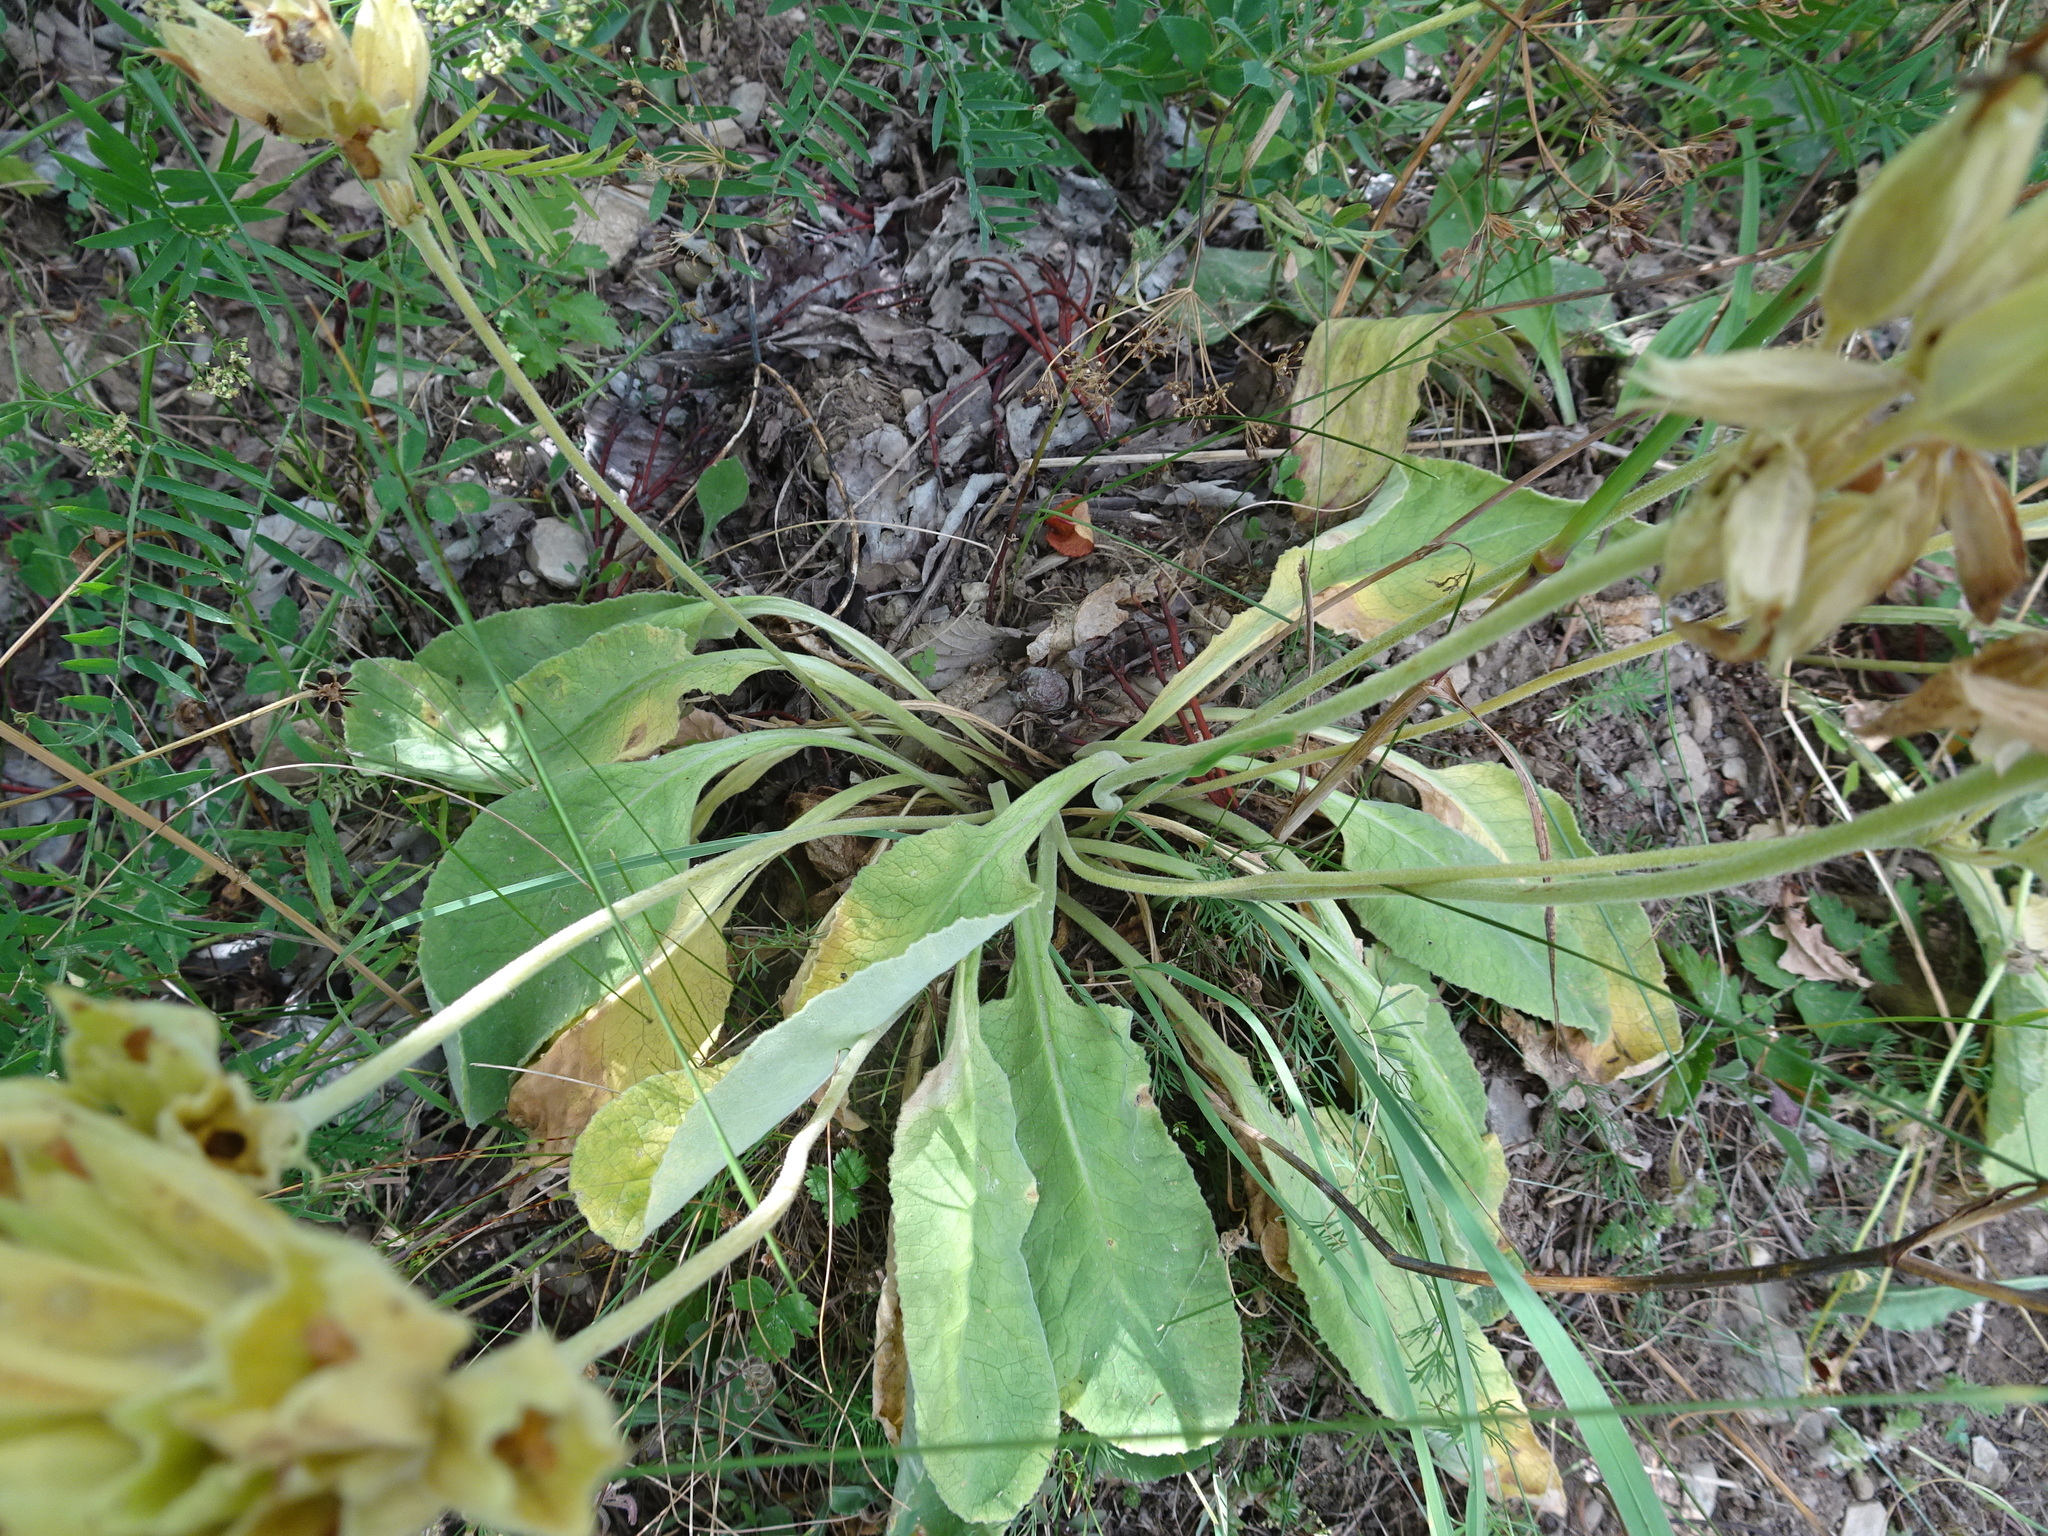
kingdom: Plantae
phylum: Tracheophyta
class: Magnoliopsida
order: Ericales
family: Primulaceae
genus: Primula
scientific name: Primula veris
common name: Cowslip
